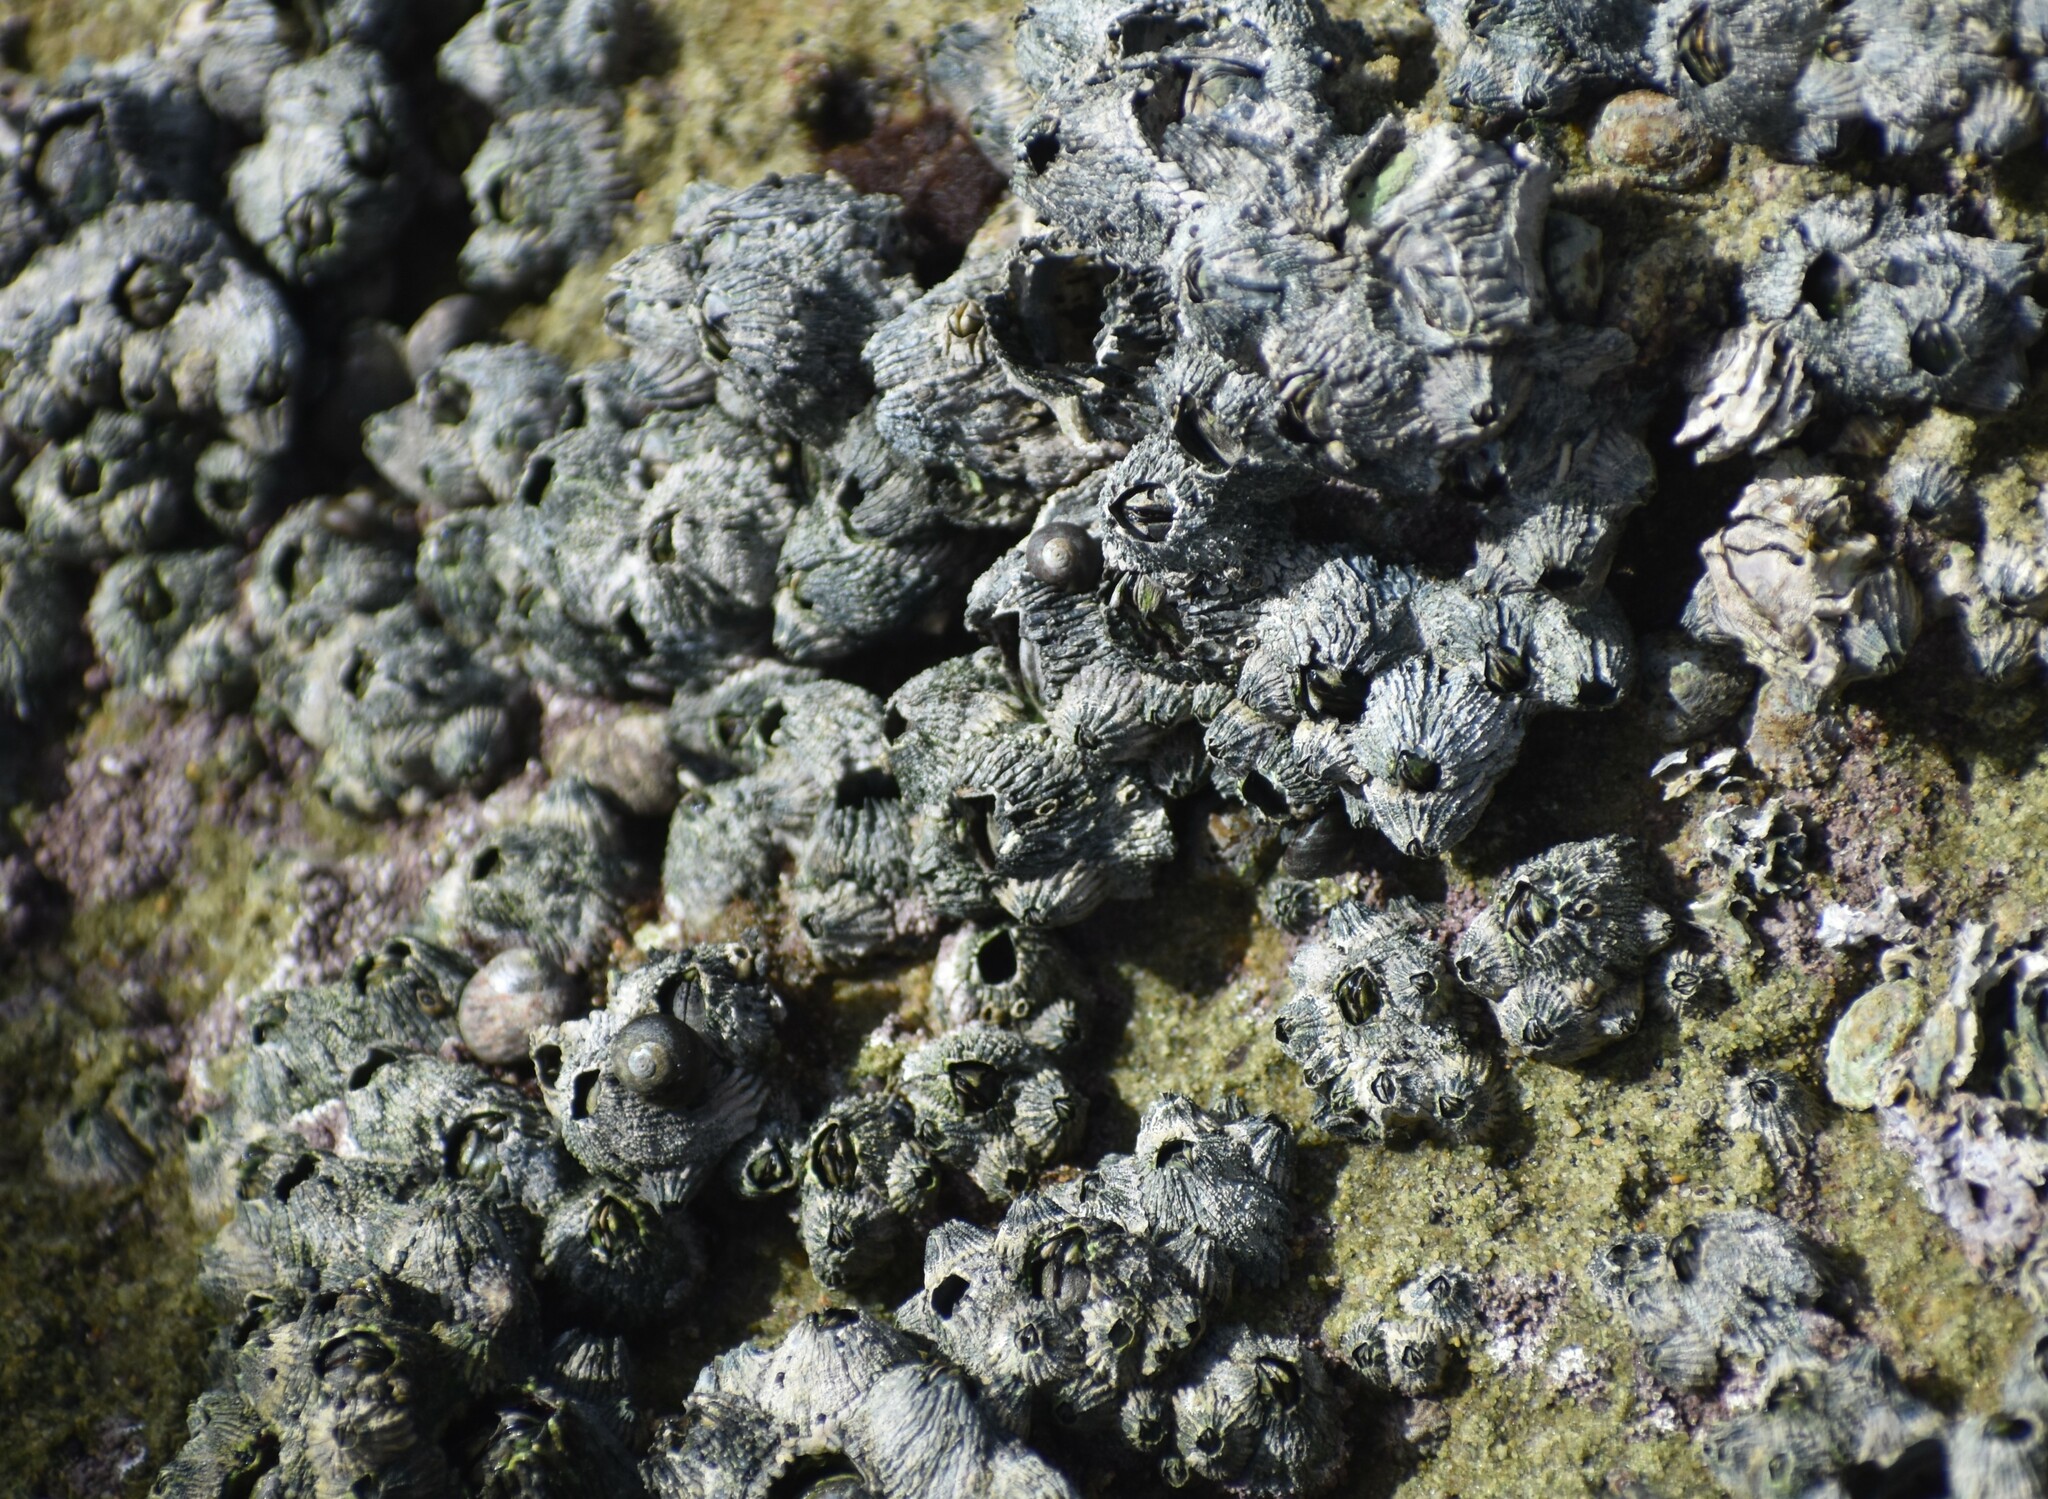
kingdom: Animalia
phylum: Arthropoda
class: Maxillopoda
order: Sessilia
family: Tetraclitidae
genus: Tetraclita
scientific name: Tetraclita serrata
